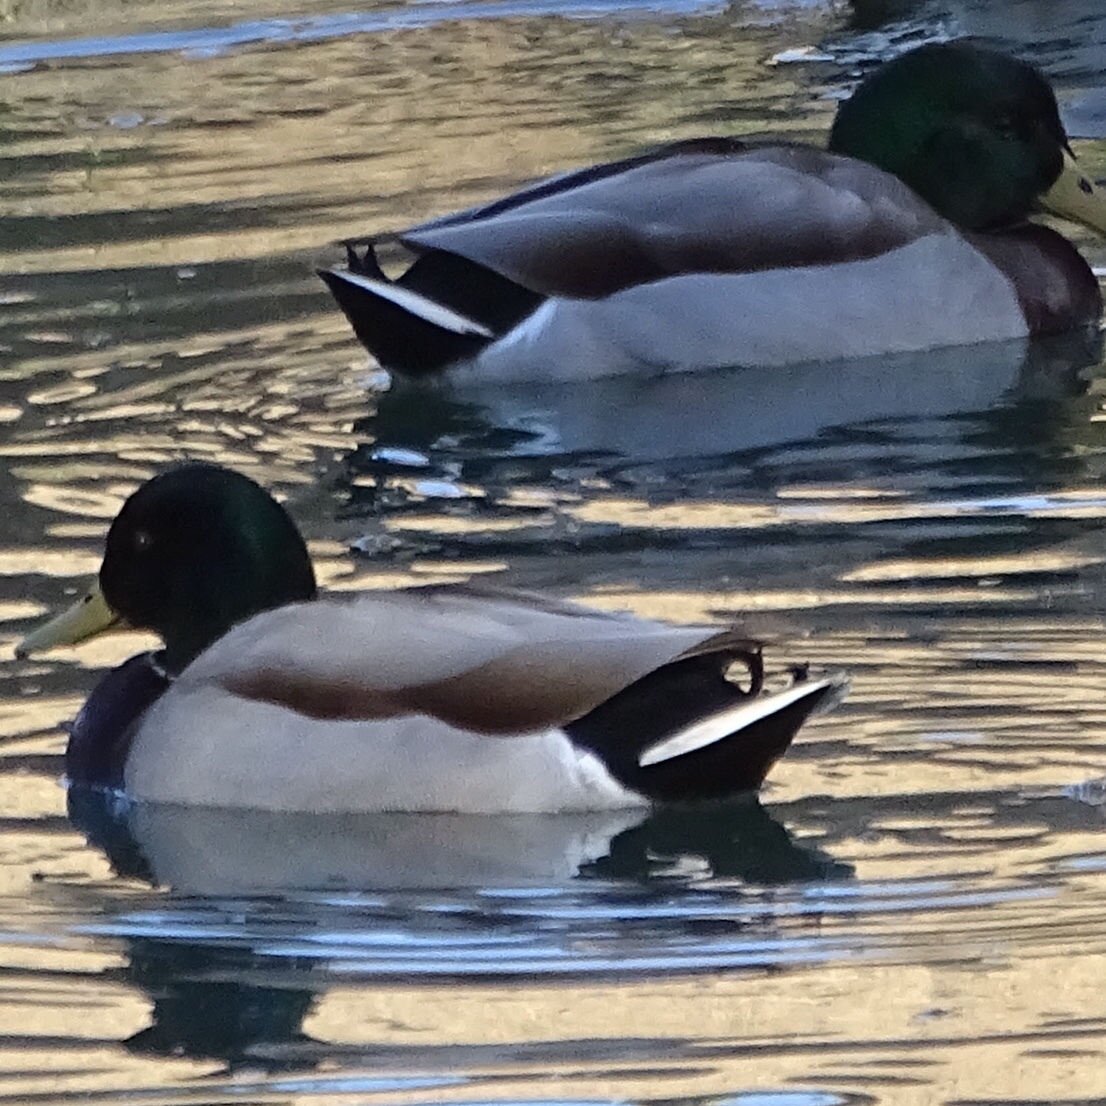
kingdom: Animalia
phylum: Chordata
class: Aves
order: Anseriformes
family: Anatidae
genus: Anas
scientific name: Anas platyrhynchos
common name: Mallard
